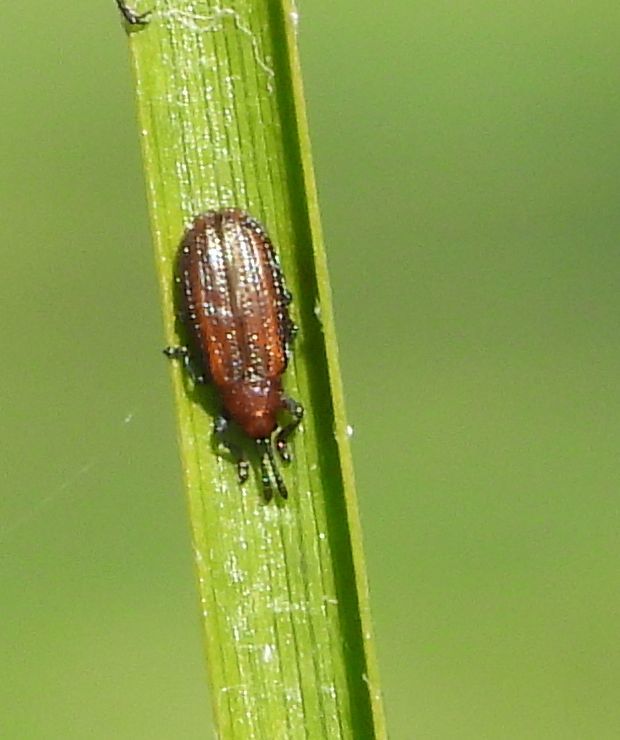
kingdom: Animalia
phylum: Arthropoda
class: Insecta
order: Coleoptera
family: Chrysomelidae
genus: Microrhopala
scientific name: Microrhopala vittata
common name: Goldenrod leaf miner beetle
